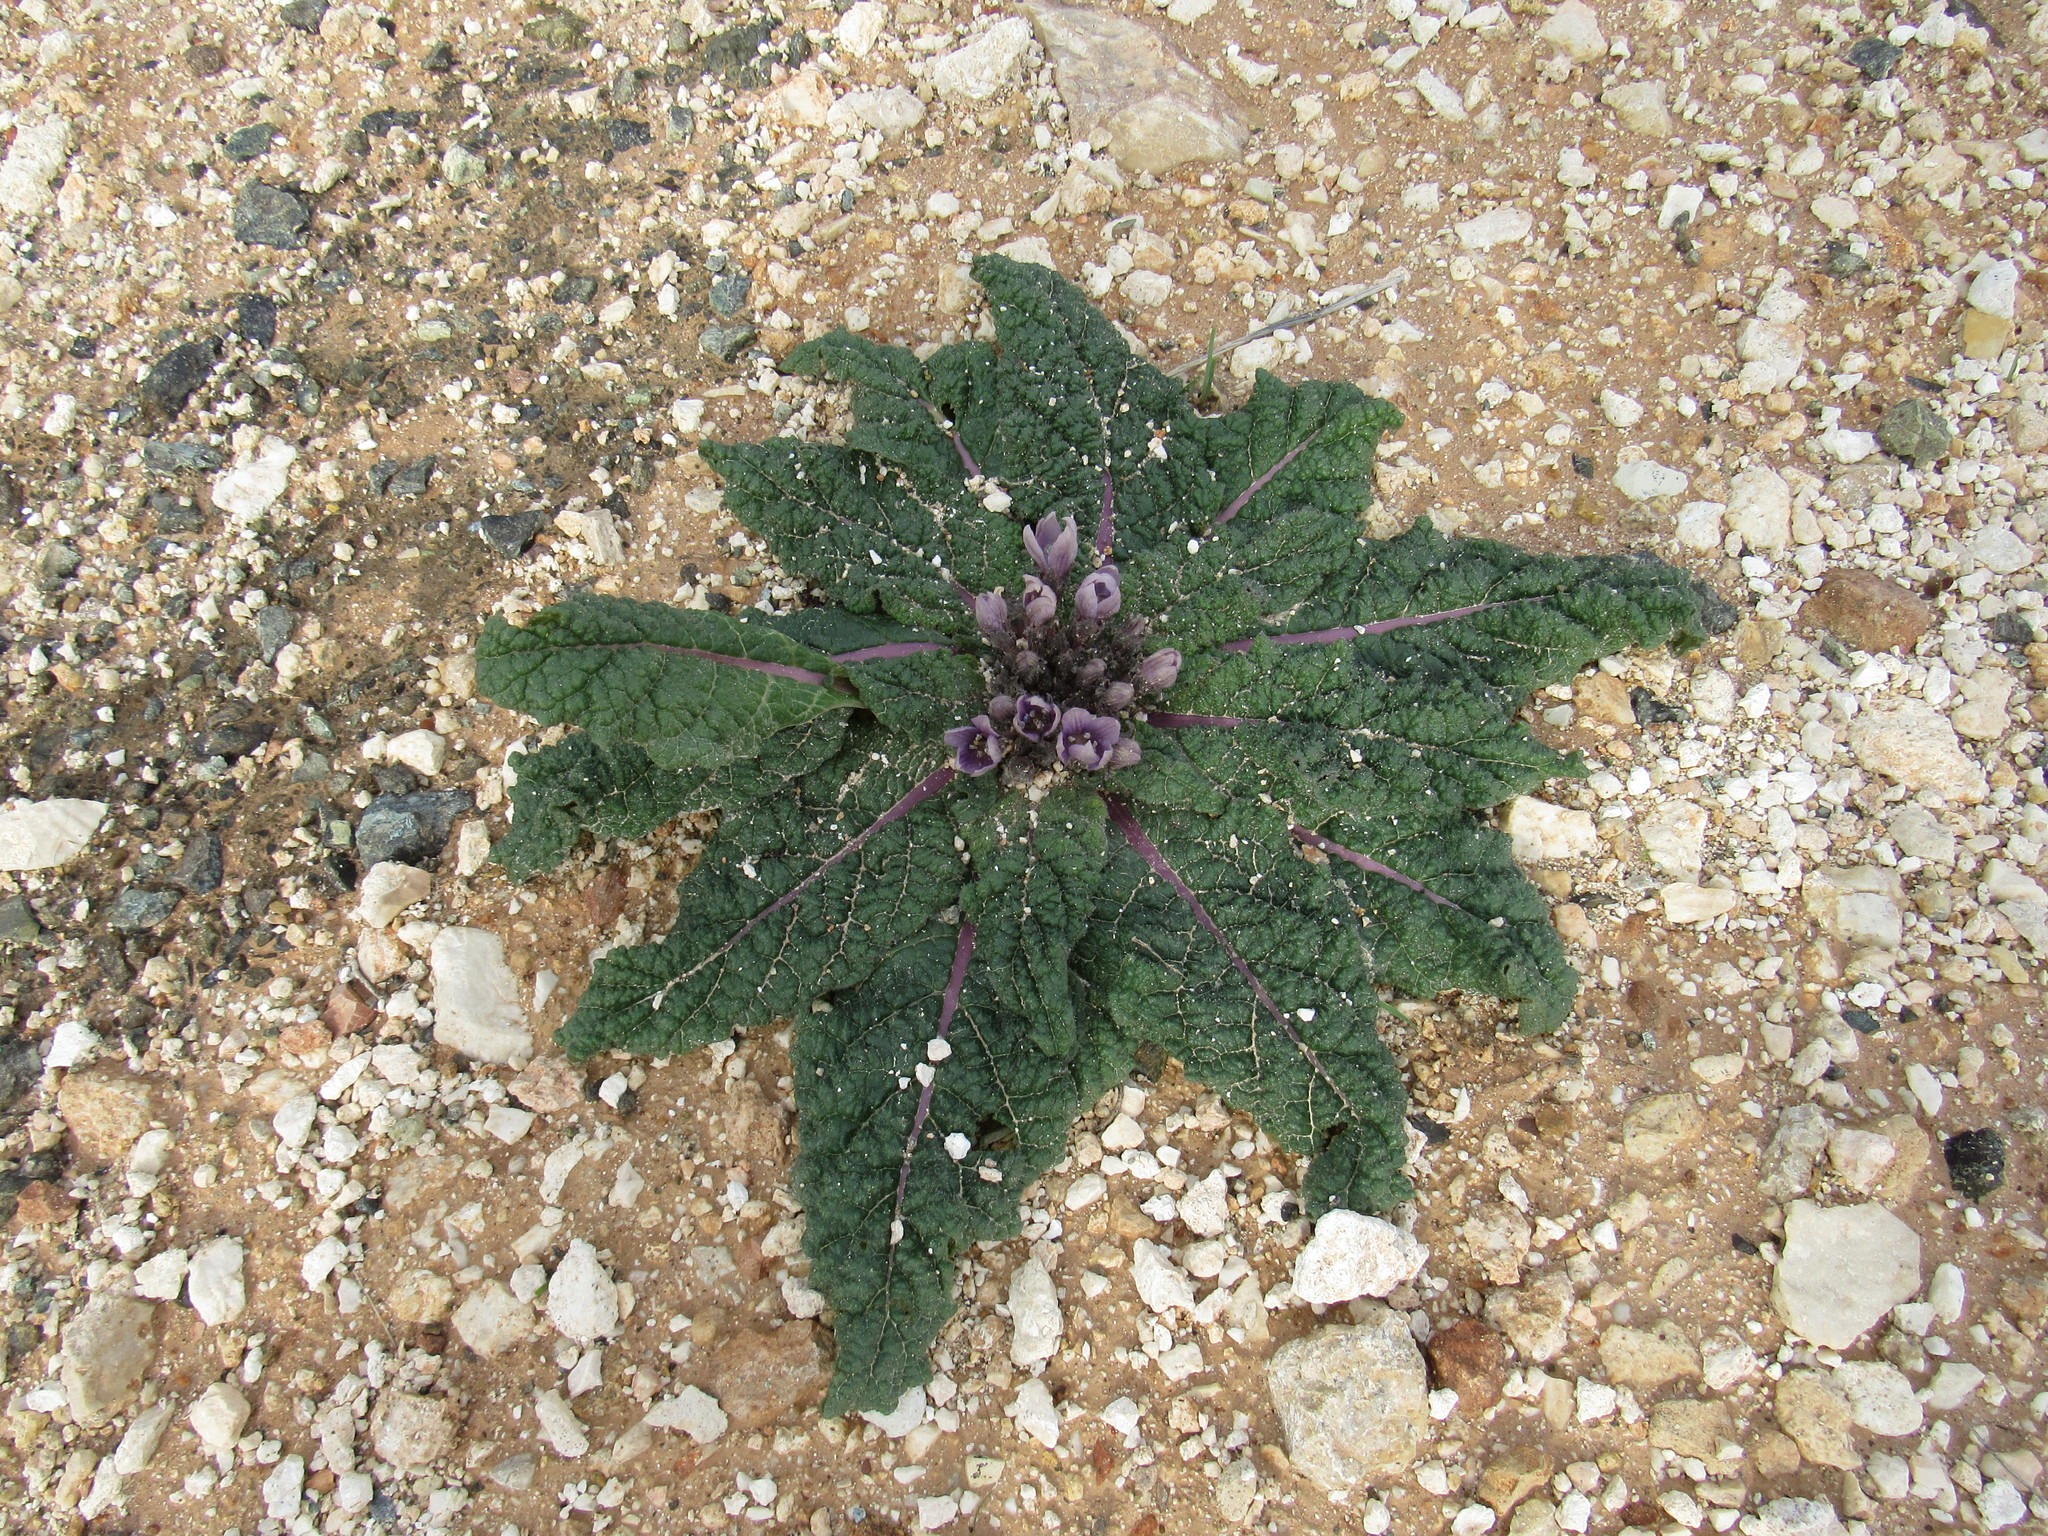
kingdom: Plantae
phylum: Tracheophyta
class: Magnoliopsida
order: Solanales
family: Solanaceae
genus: Mandragora
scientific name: Mandragora officinarum
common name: Mandrake
